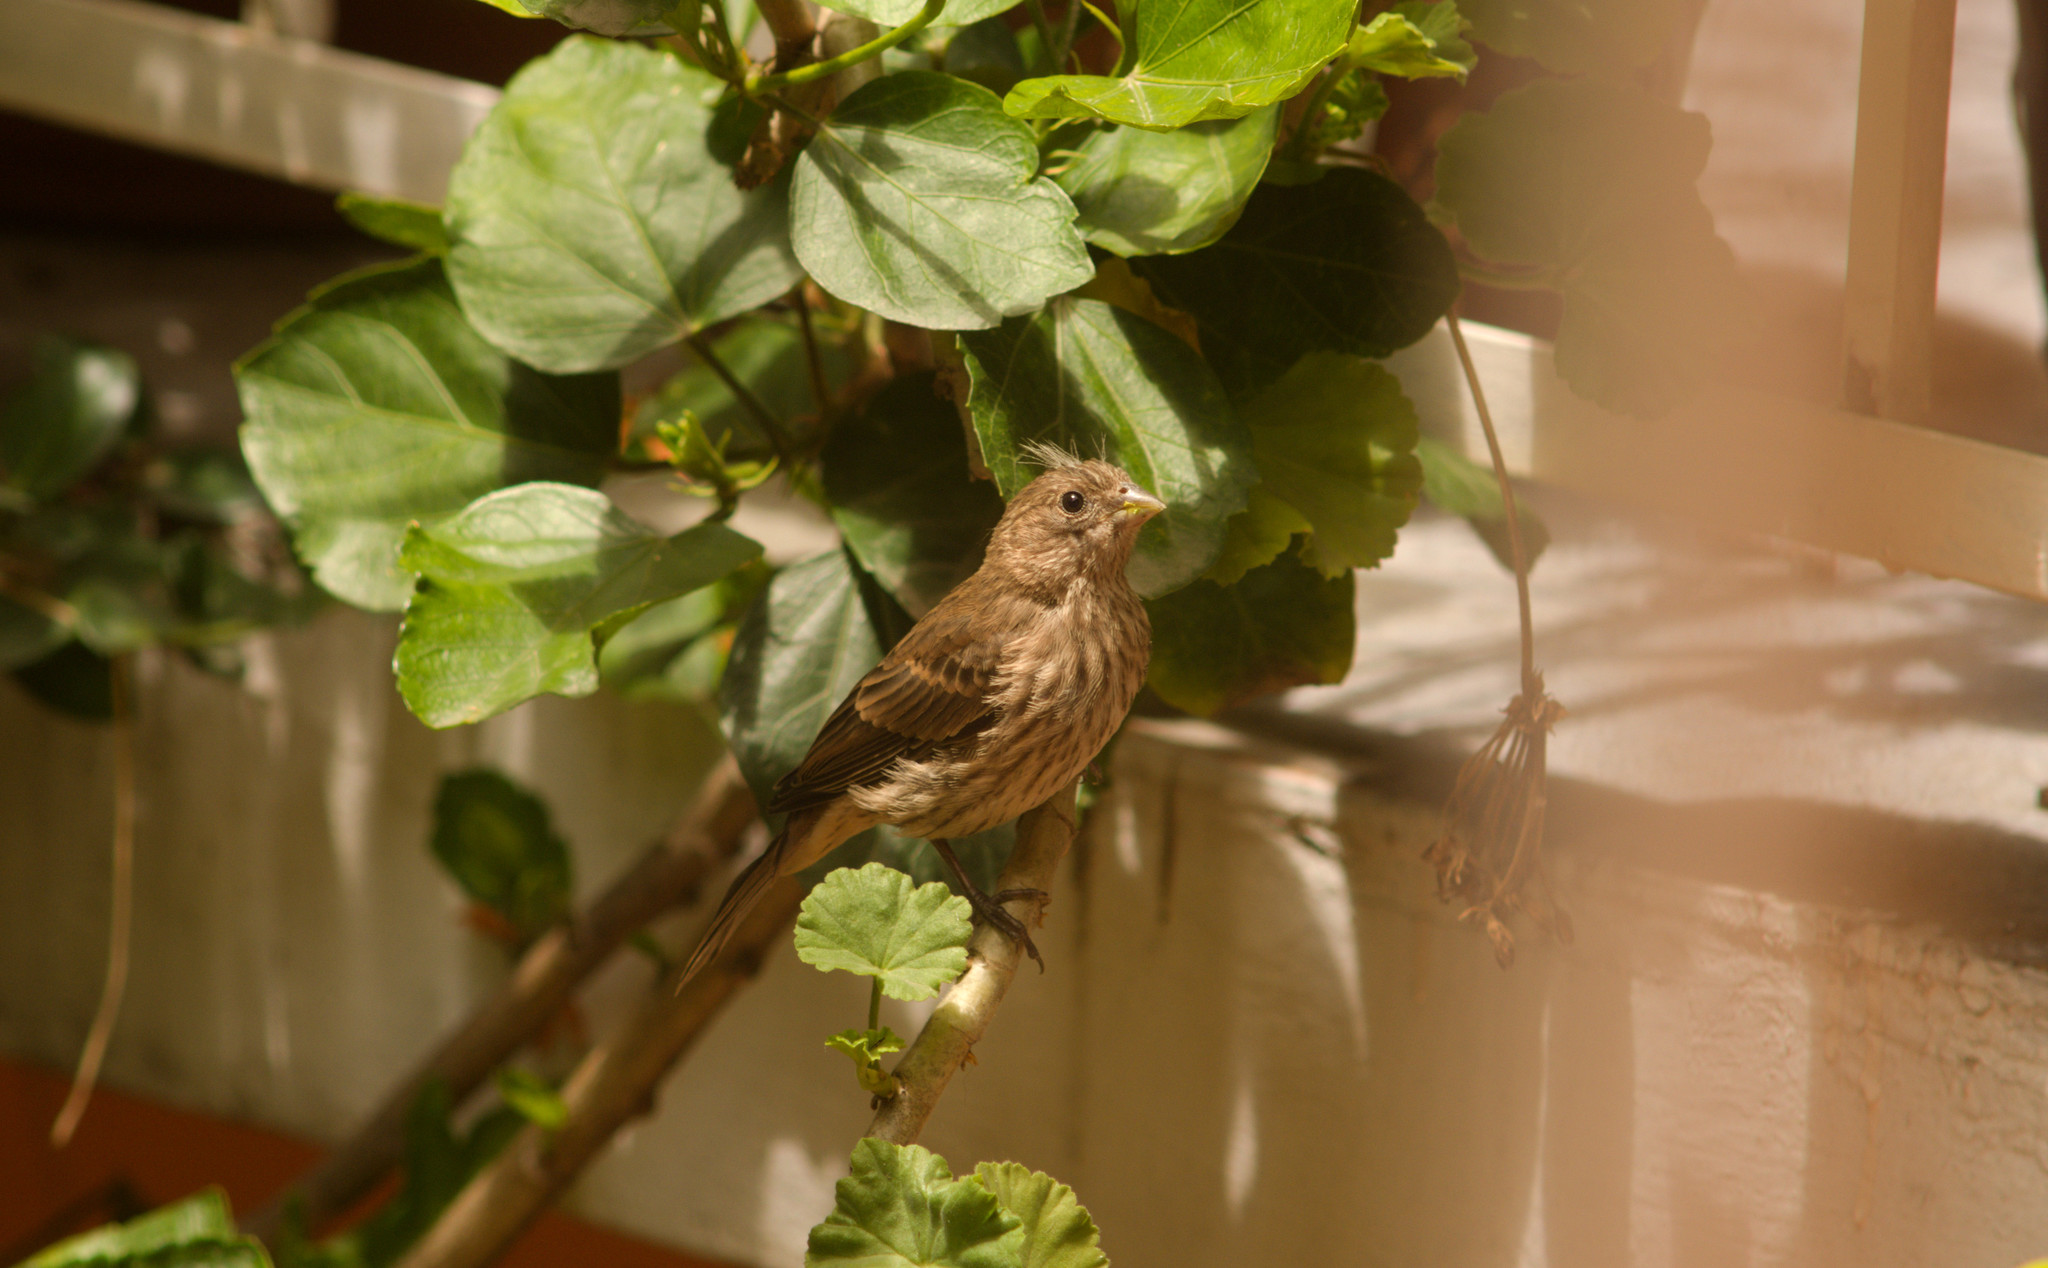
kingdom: Animalia
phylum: Chordata
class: Aves
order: Passeriformes
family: Fringillidae
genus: Haemorhous
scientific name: Haemorhous mexicanus
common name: House finch
